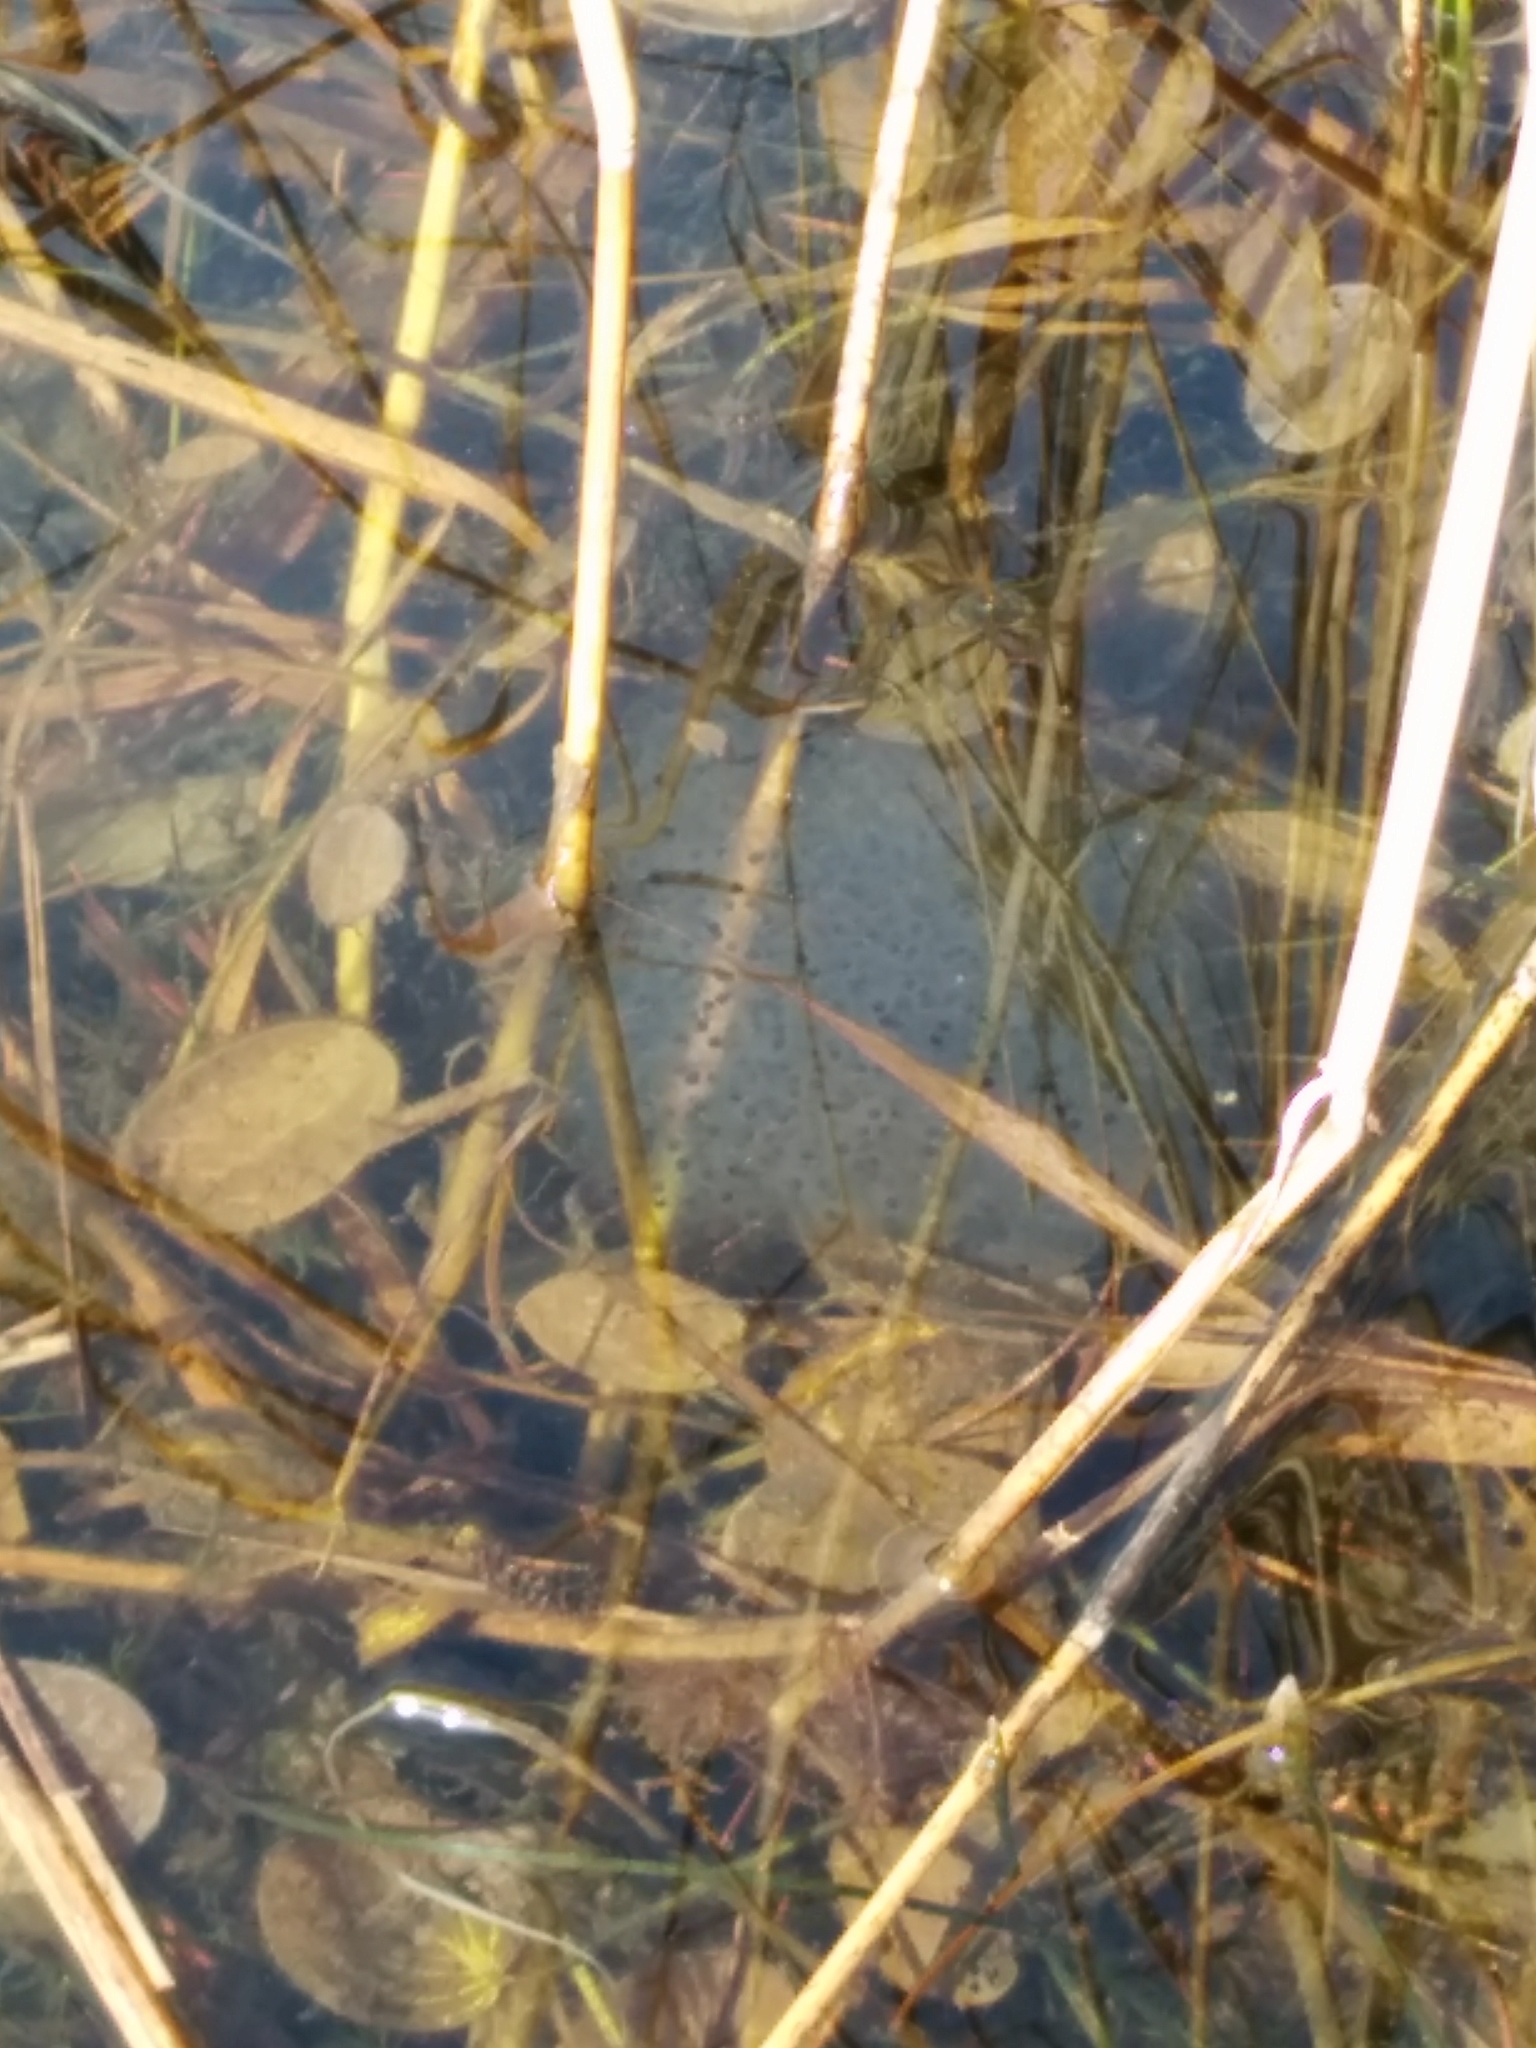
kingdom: Animalia
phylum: Chordata
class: Amphibia
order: Anura
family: Ranidae
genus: Rana
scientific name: Rana dalmatina
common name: Agile frog
